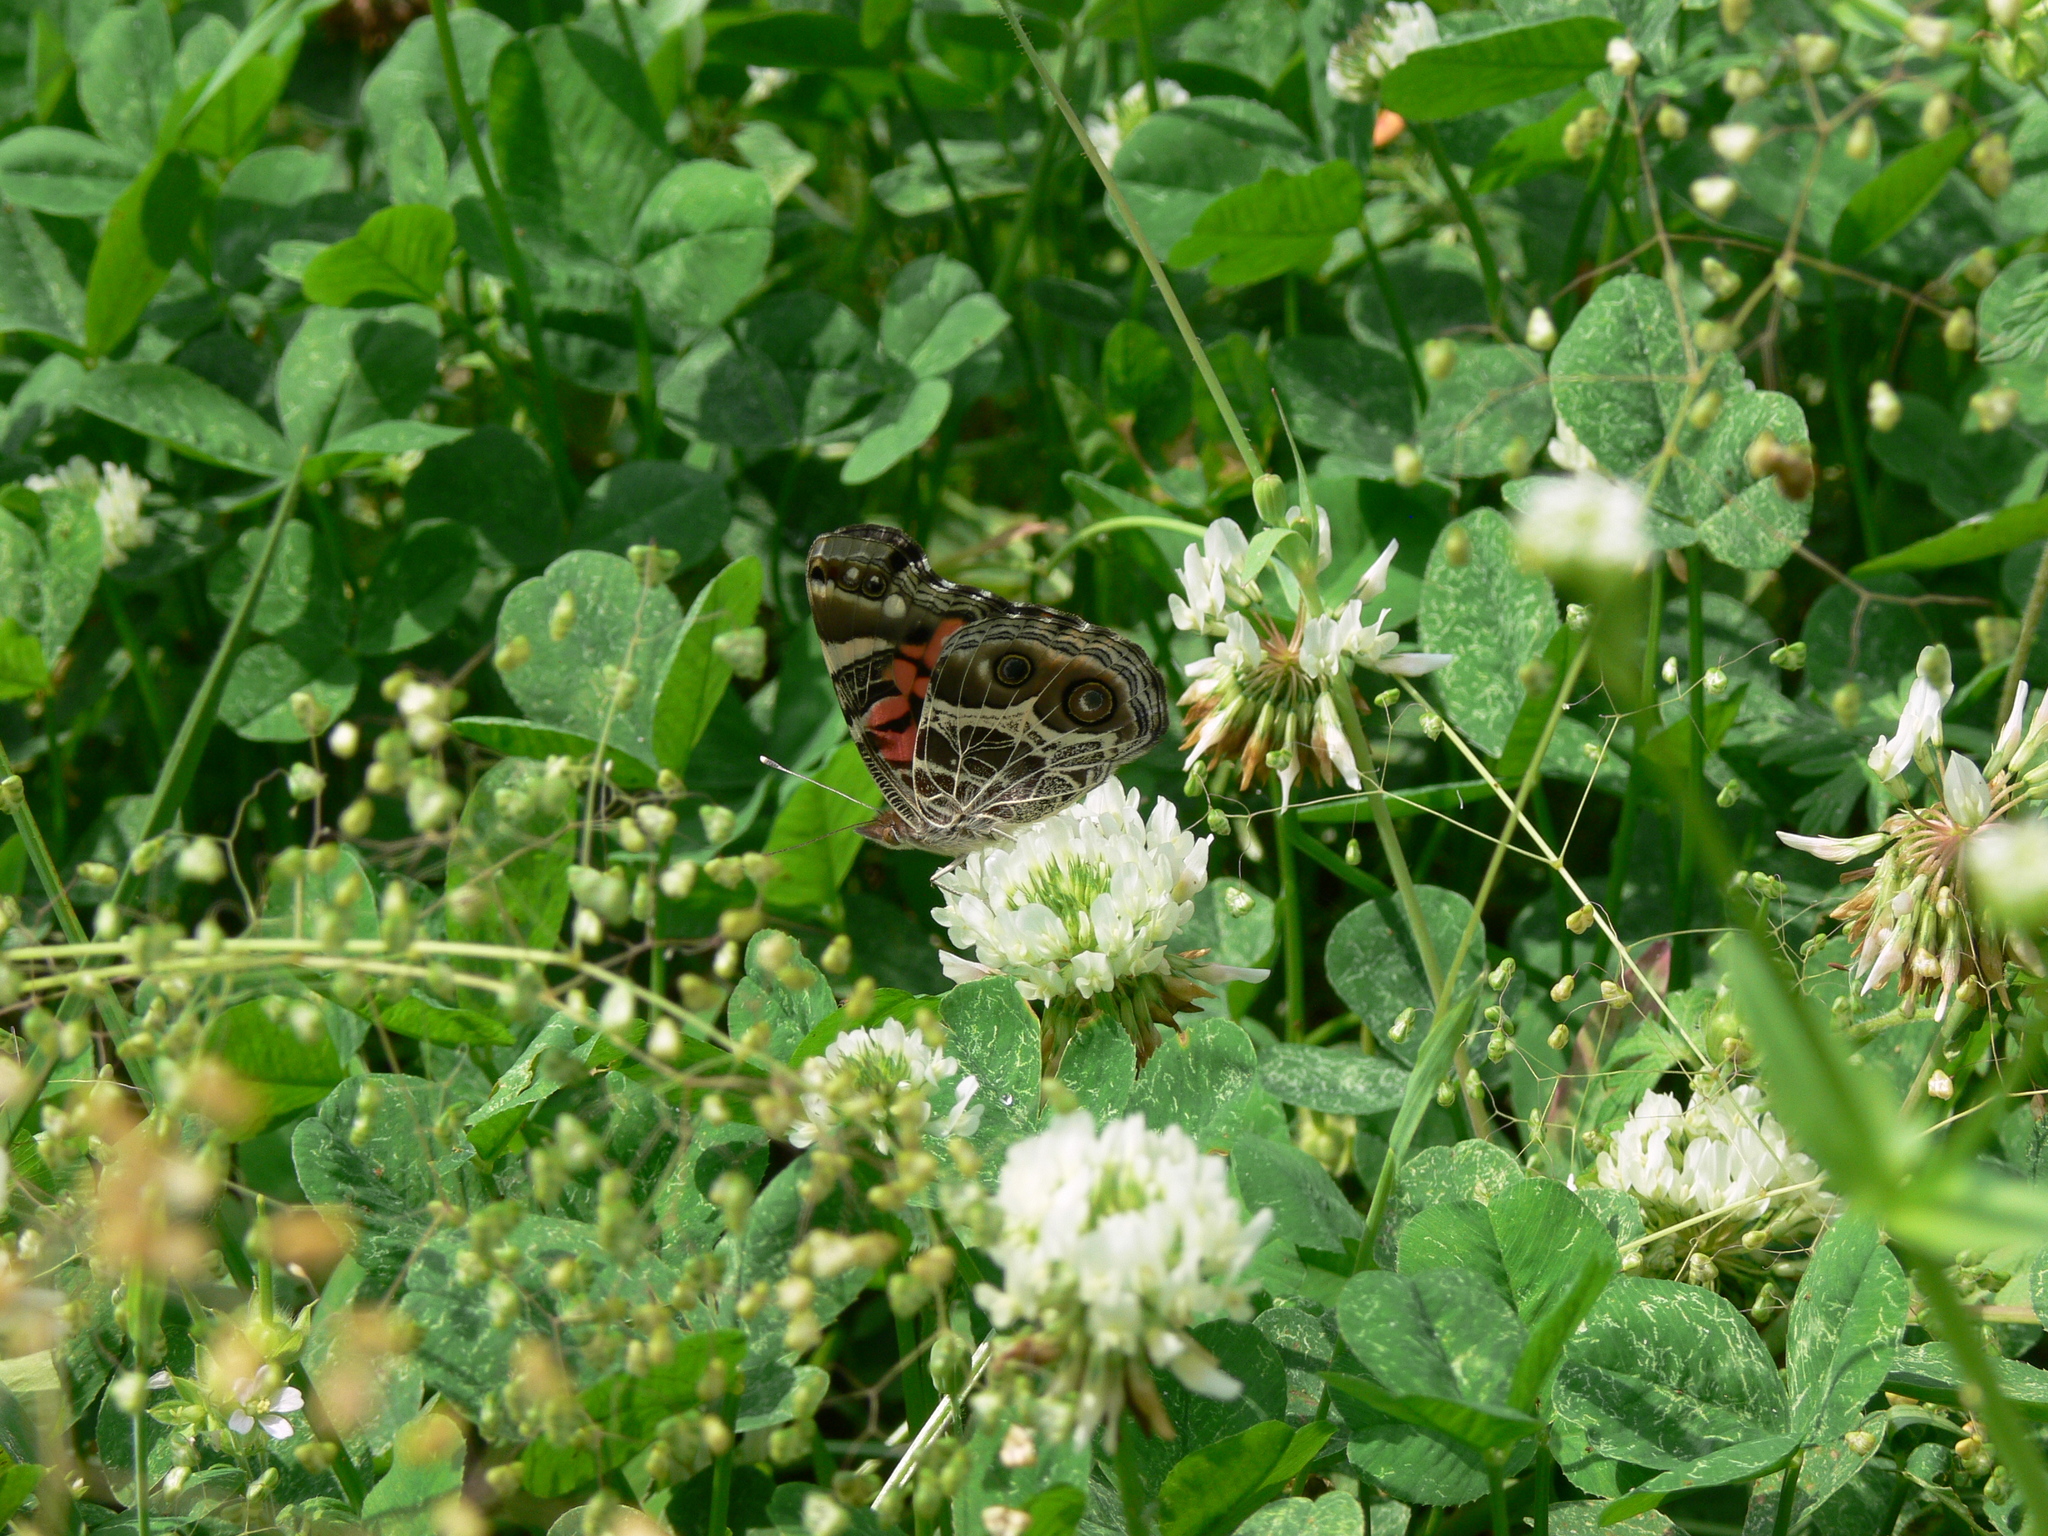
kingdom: Animalia
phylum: Arthropoda
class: Insecta
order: Lepidoptera
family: Nymphalidae
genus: Vanessa
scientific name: Vanessa virginiensis
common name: American lady
